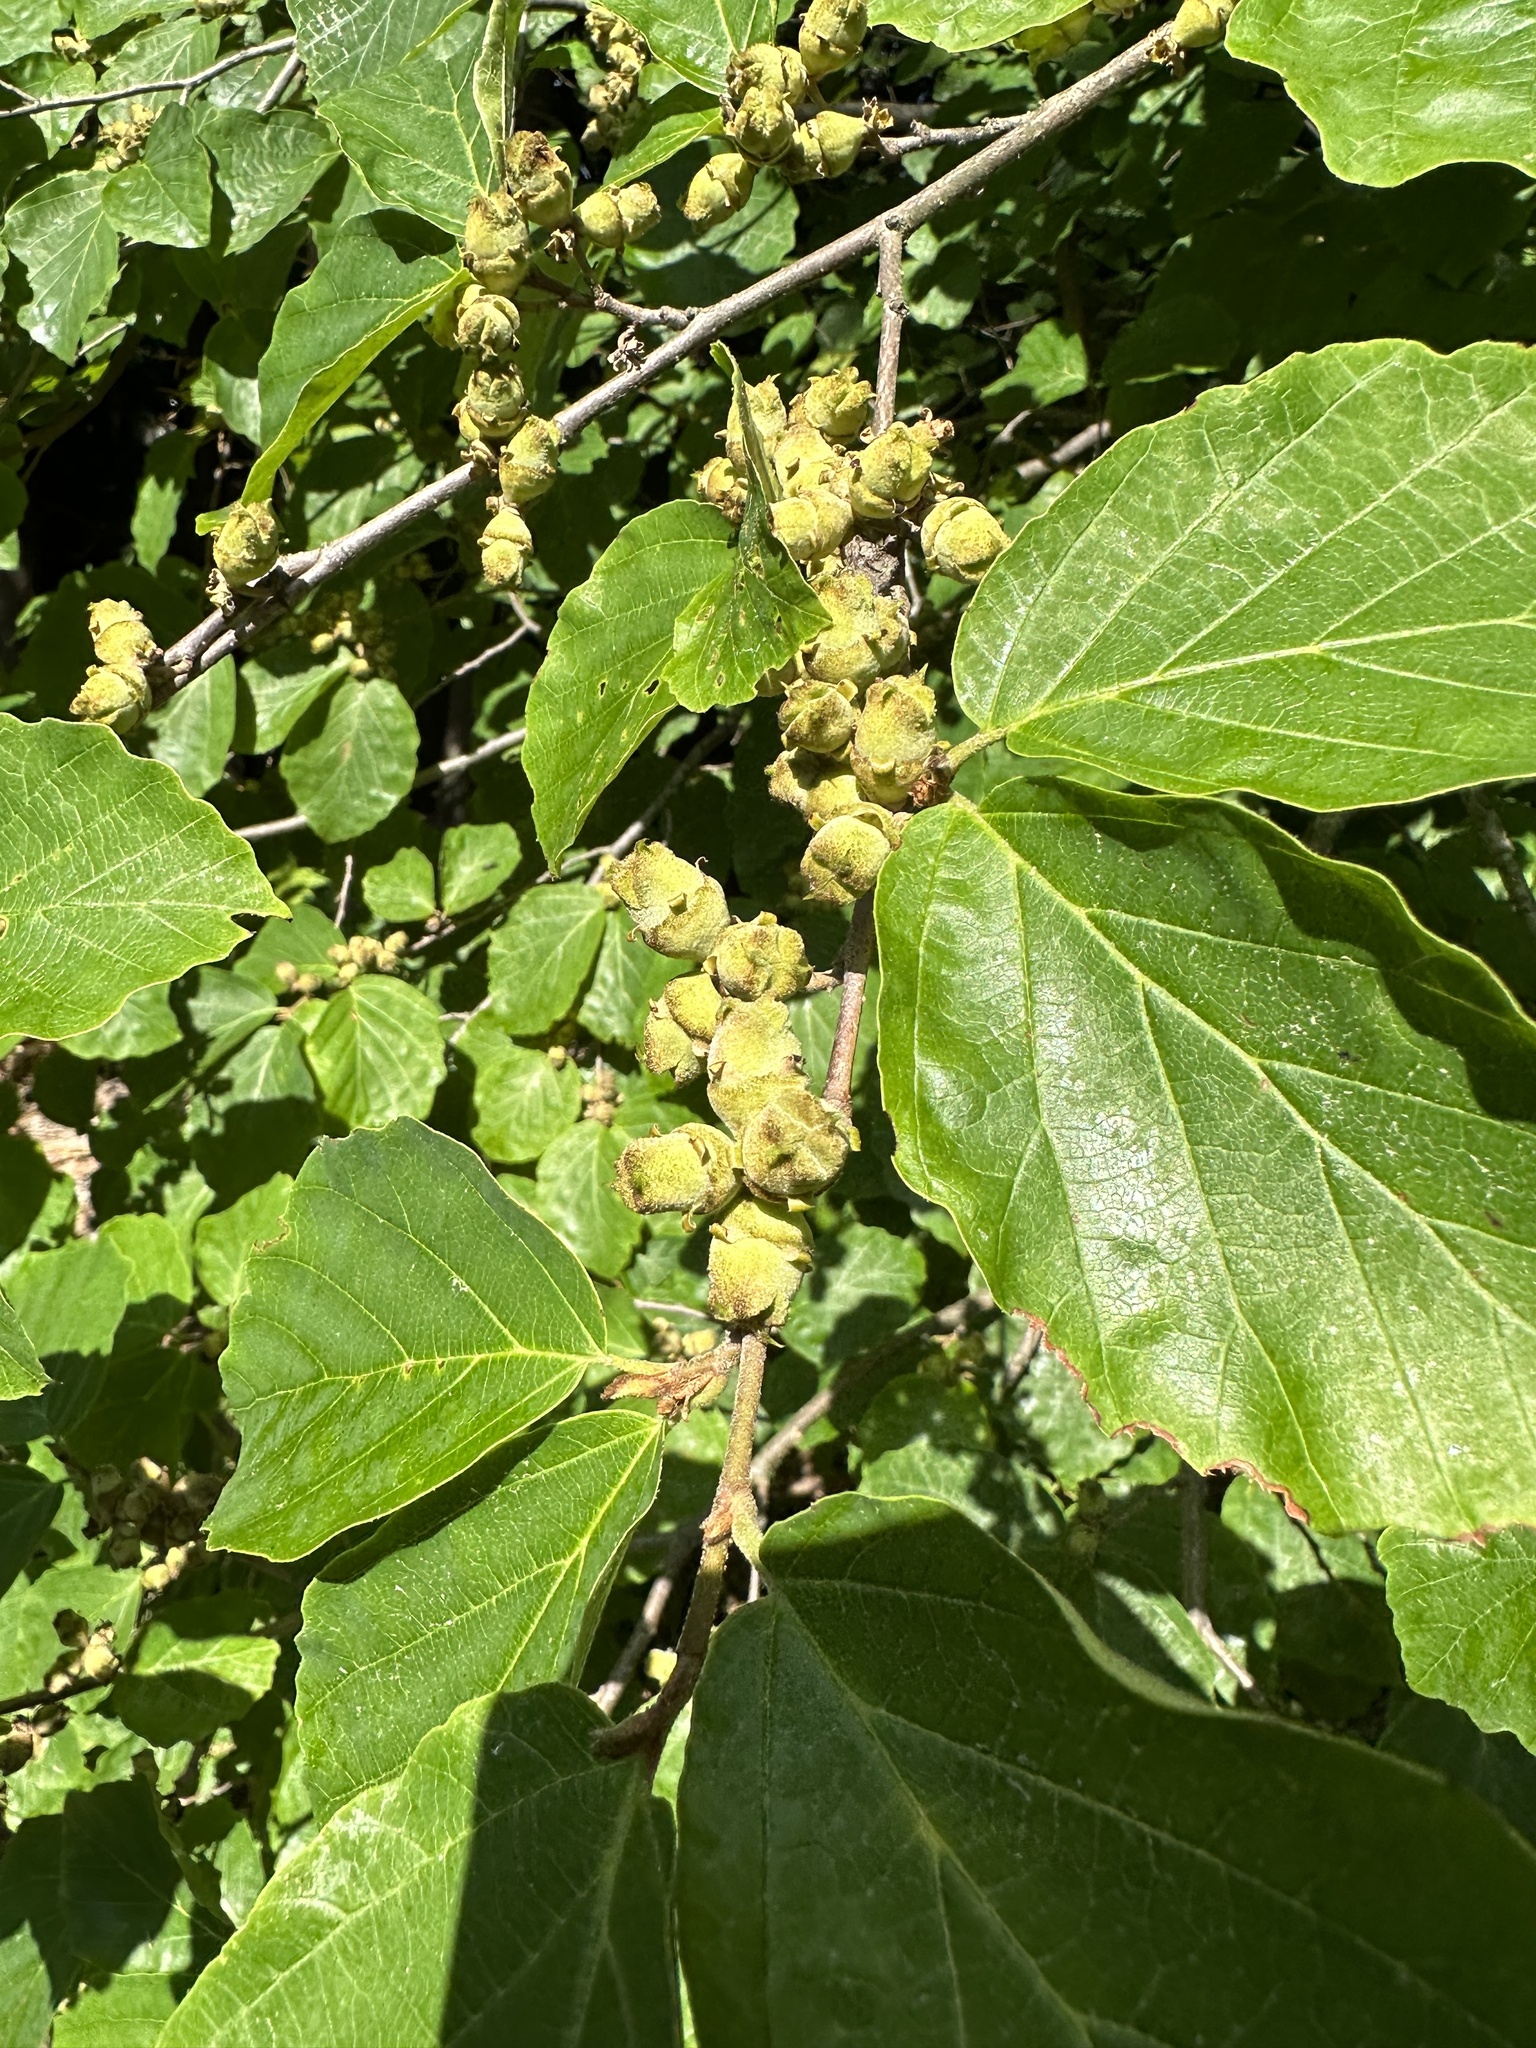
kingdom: Plantae
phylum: Tracheophyta
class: Magnoliopsida
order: Saxifragales
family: Hamamelidaceae
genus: Hamamelis
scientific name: Hamamelis virginiana
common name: Witch-hazel
